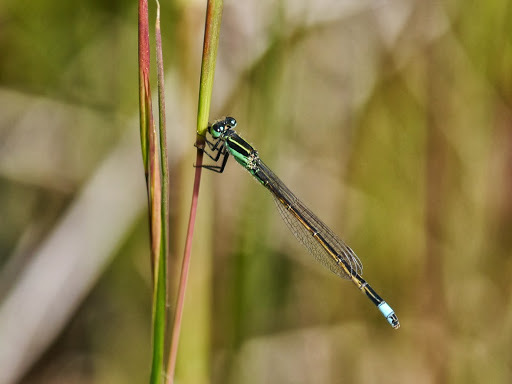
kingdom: Animalia
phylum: Arthropoda
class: Insecta
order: Odonata
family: Coenagrionidae
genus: Ischnura
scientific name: Ischnura ramburii
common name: Rambur's forktail
